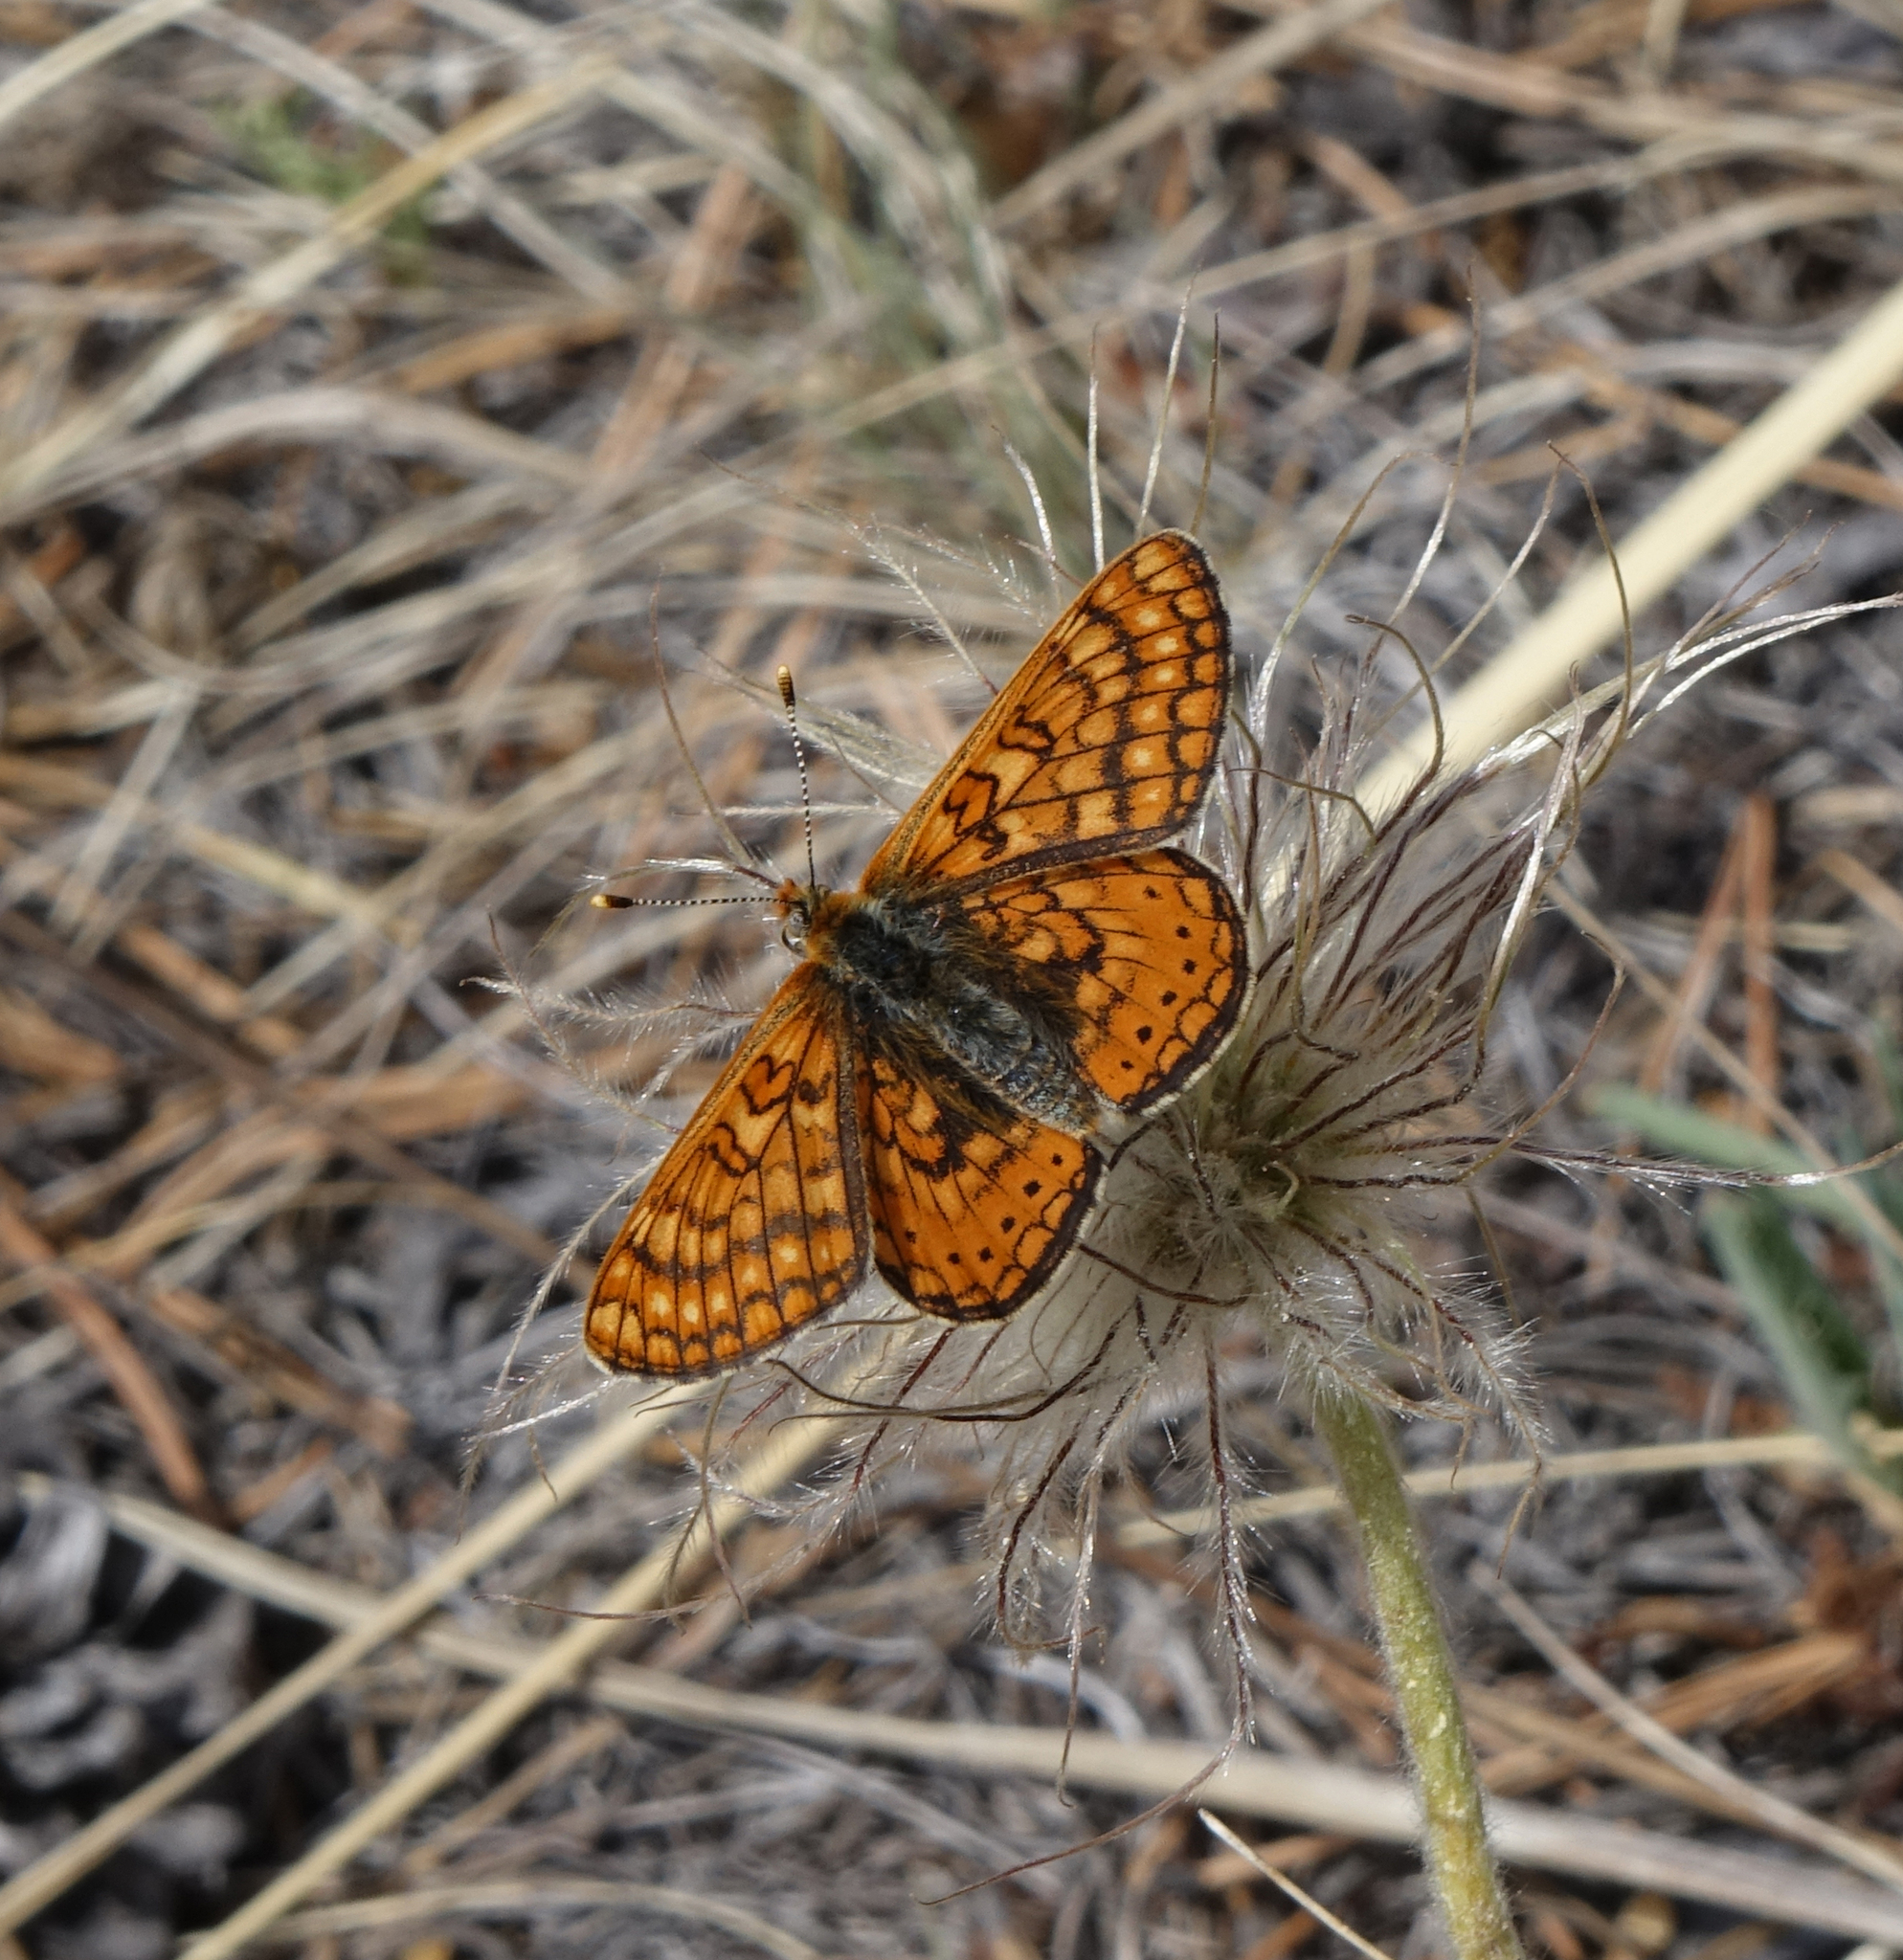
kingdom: Animalia
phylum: Arthropoda
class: Insecta
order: Lepidoptera
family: Nymphalidae
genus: Euphydryas
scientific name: Euphydryas aurinia
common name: Marsh fritillary
